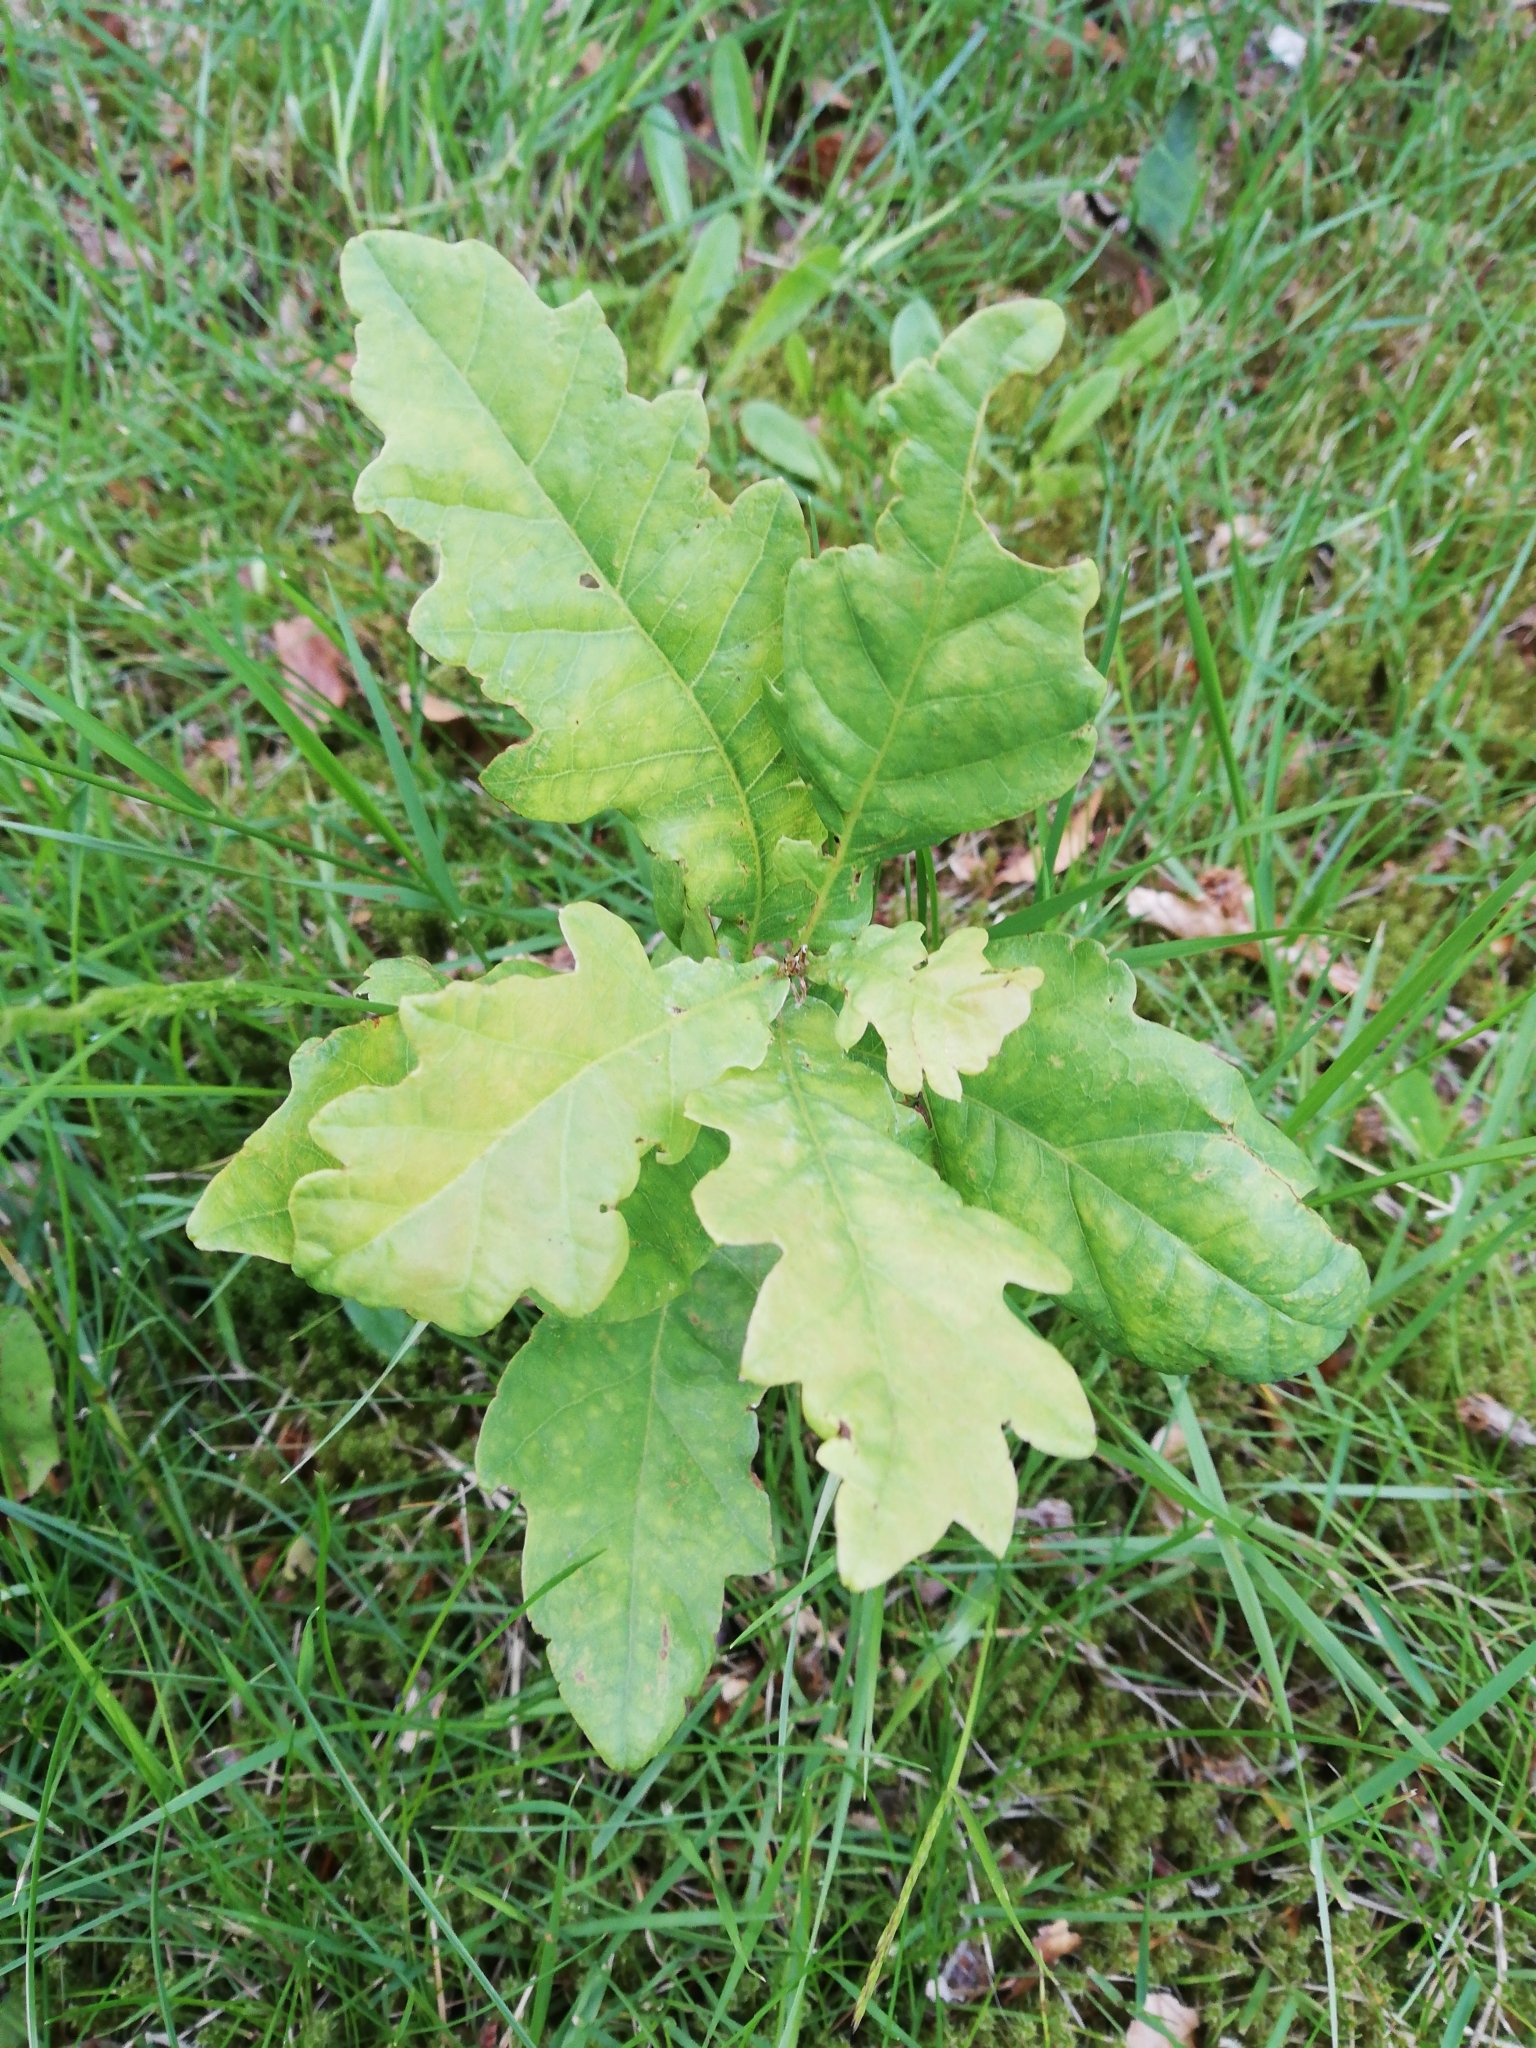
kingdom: Plantae
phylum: Tracheophyta
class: Magnoliopsida
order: Fagales
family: Fagaceae
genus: Quercus
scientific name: Quercus robur
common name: Pedunculate oak
